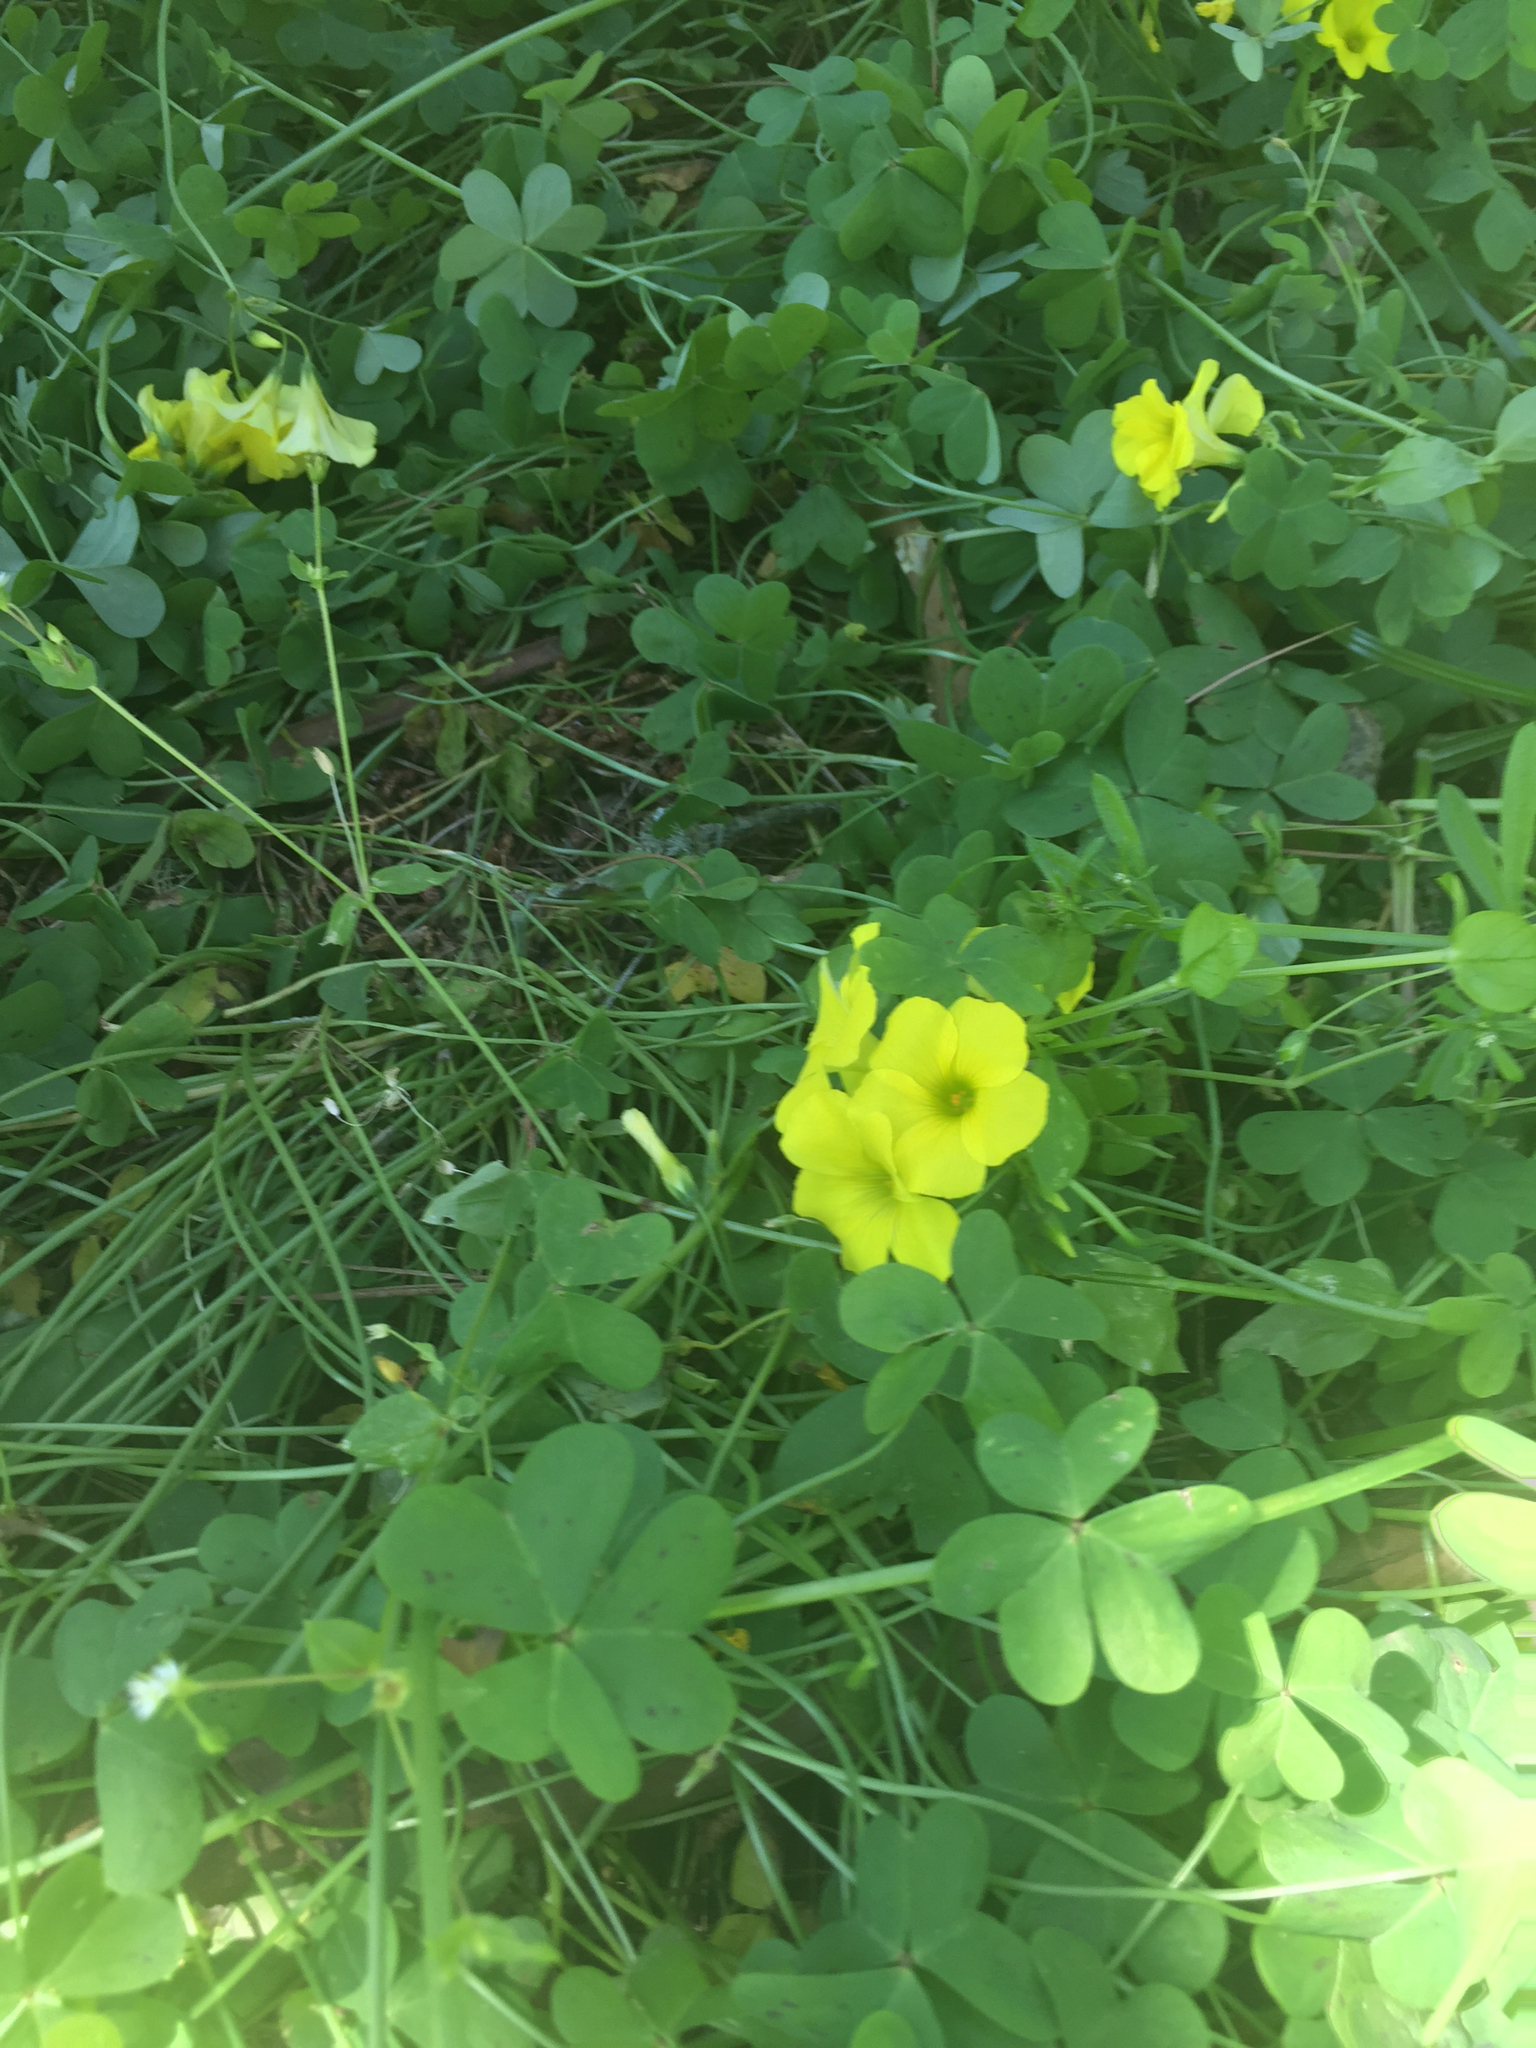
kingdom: Plantae
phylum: Tracheophyta
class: Magnoliopsida
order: Oxalidales
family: Oxalidaceae
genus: Oxalis
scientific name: Oxalis pes-caprae
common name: Bermuda-buttercup
